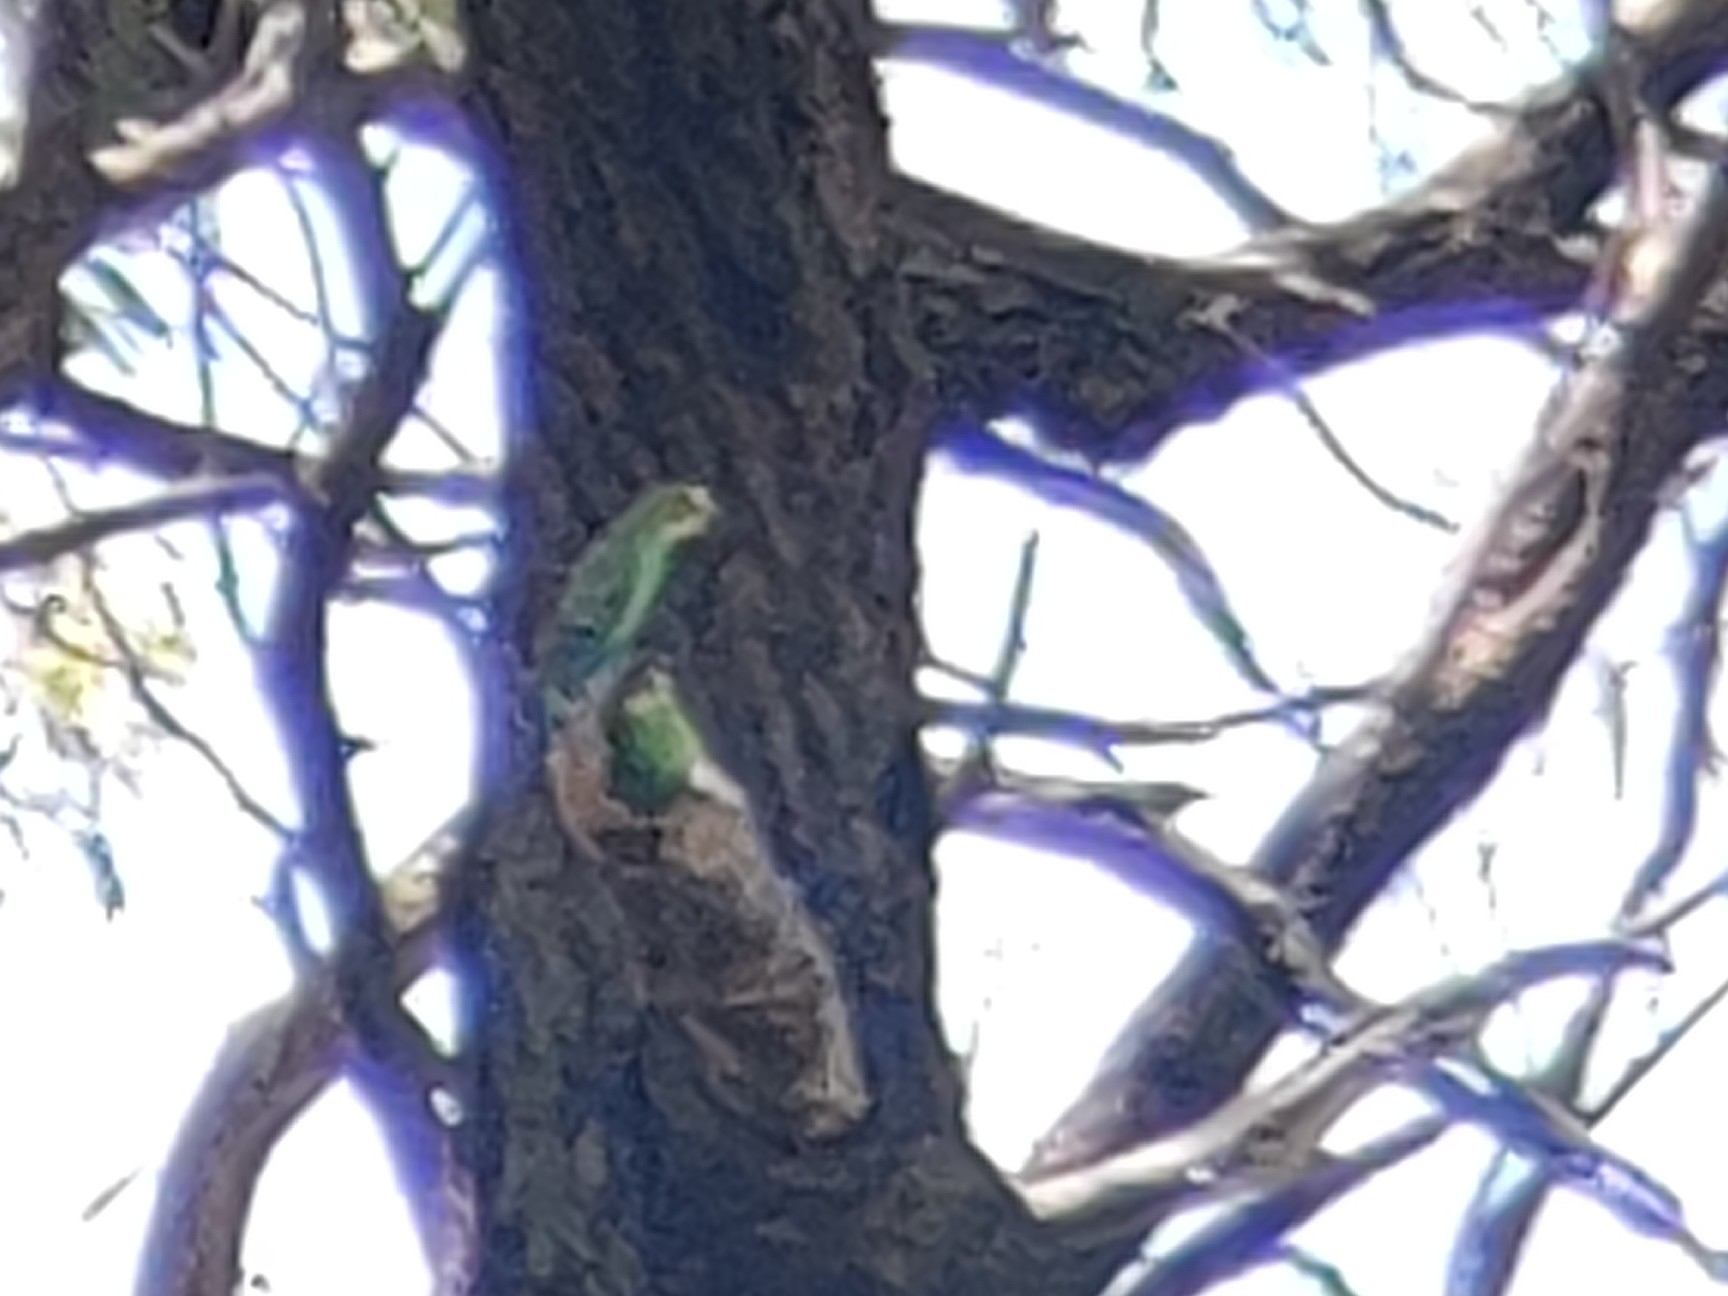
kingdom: Animalia
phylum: Chordata
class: Aves
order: Psittaciformes
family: Psittacidae
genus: Melopsittacus
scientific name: Melopsittacus undulatus
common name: Budgerigar
